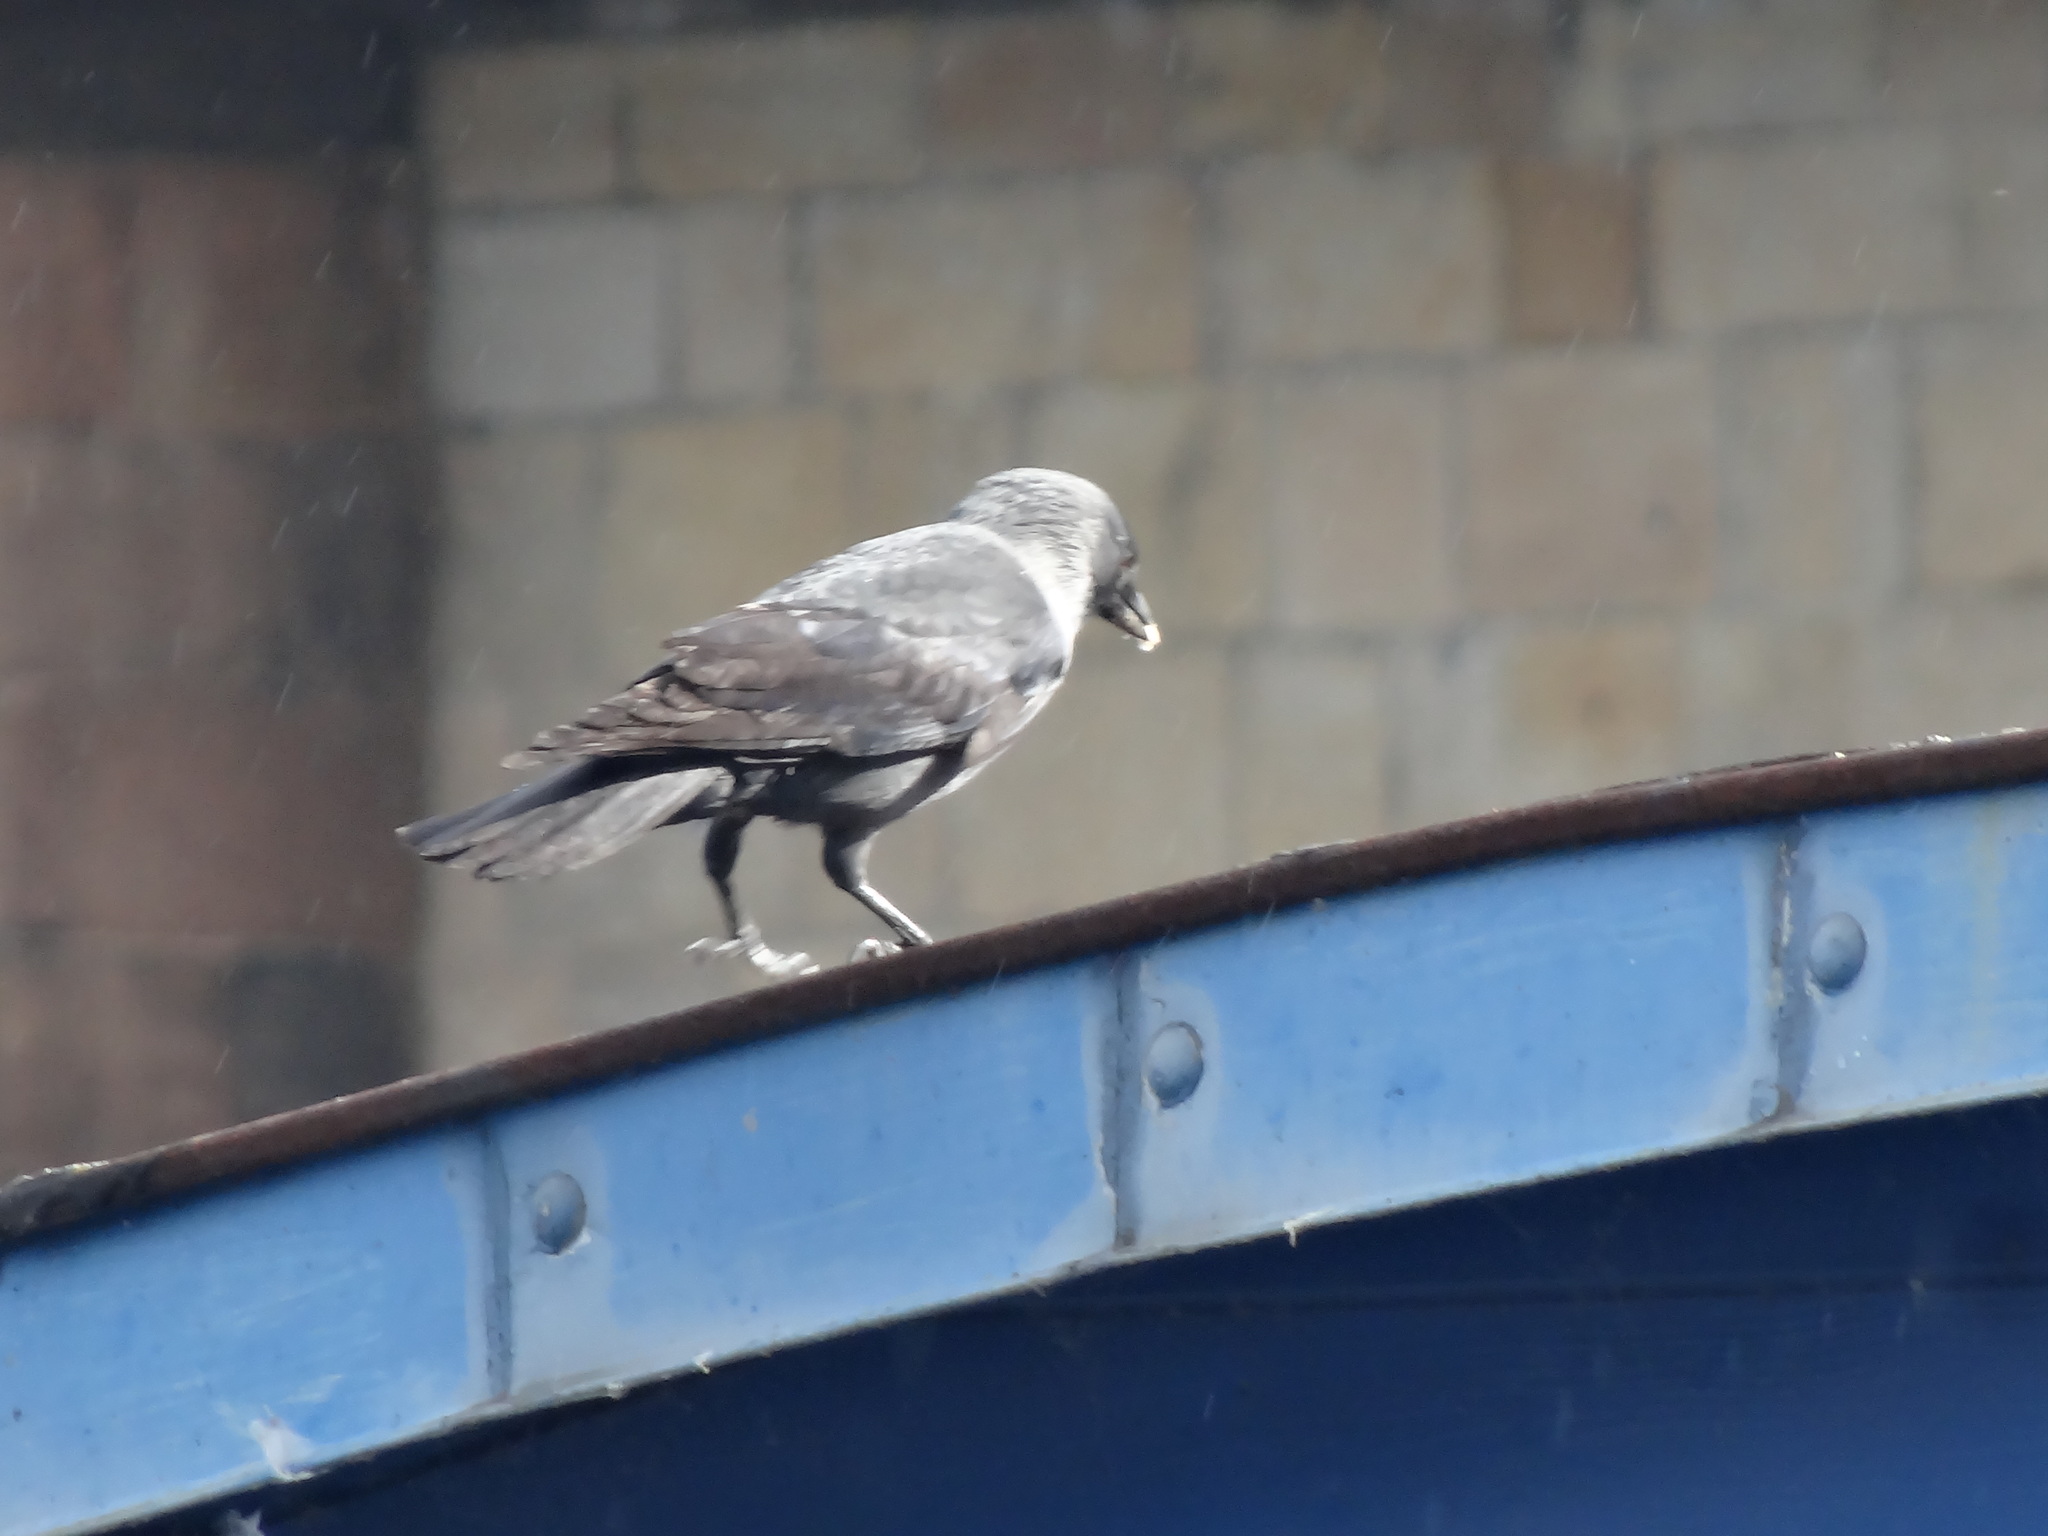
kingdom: Animalia
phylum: Chordata
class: Aves
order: Passeriformes
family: Corvidae
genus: Coloeus
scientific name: Coloeus monedula
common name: Western jackdaw
